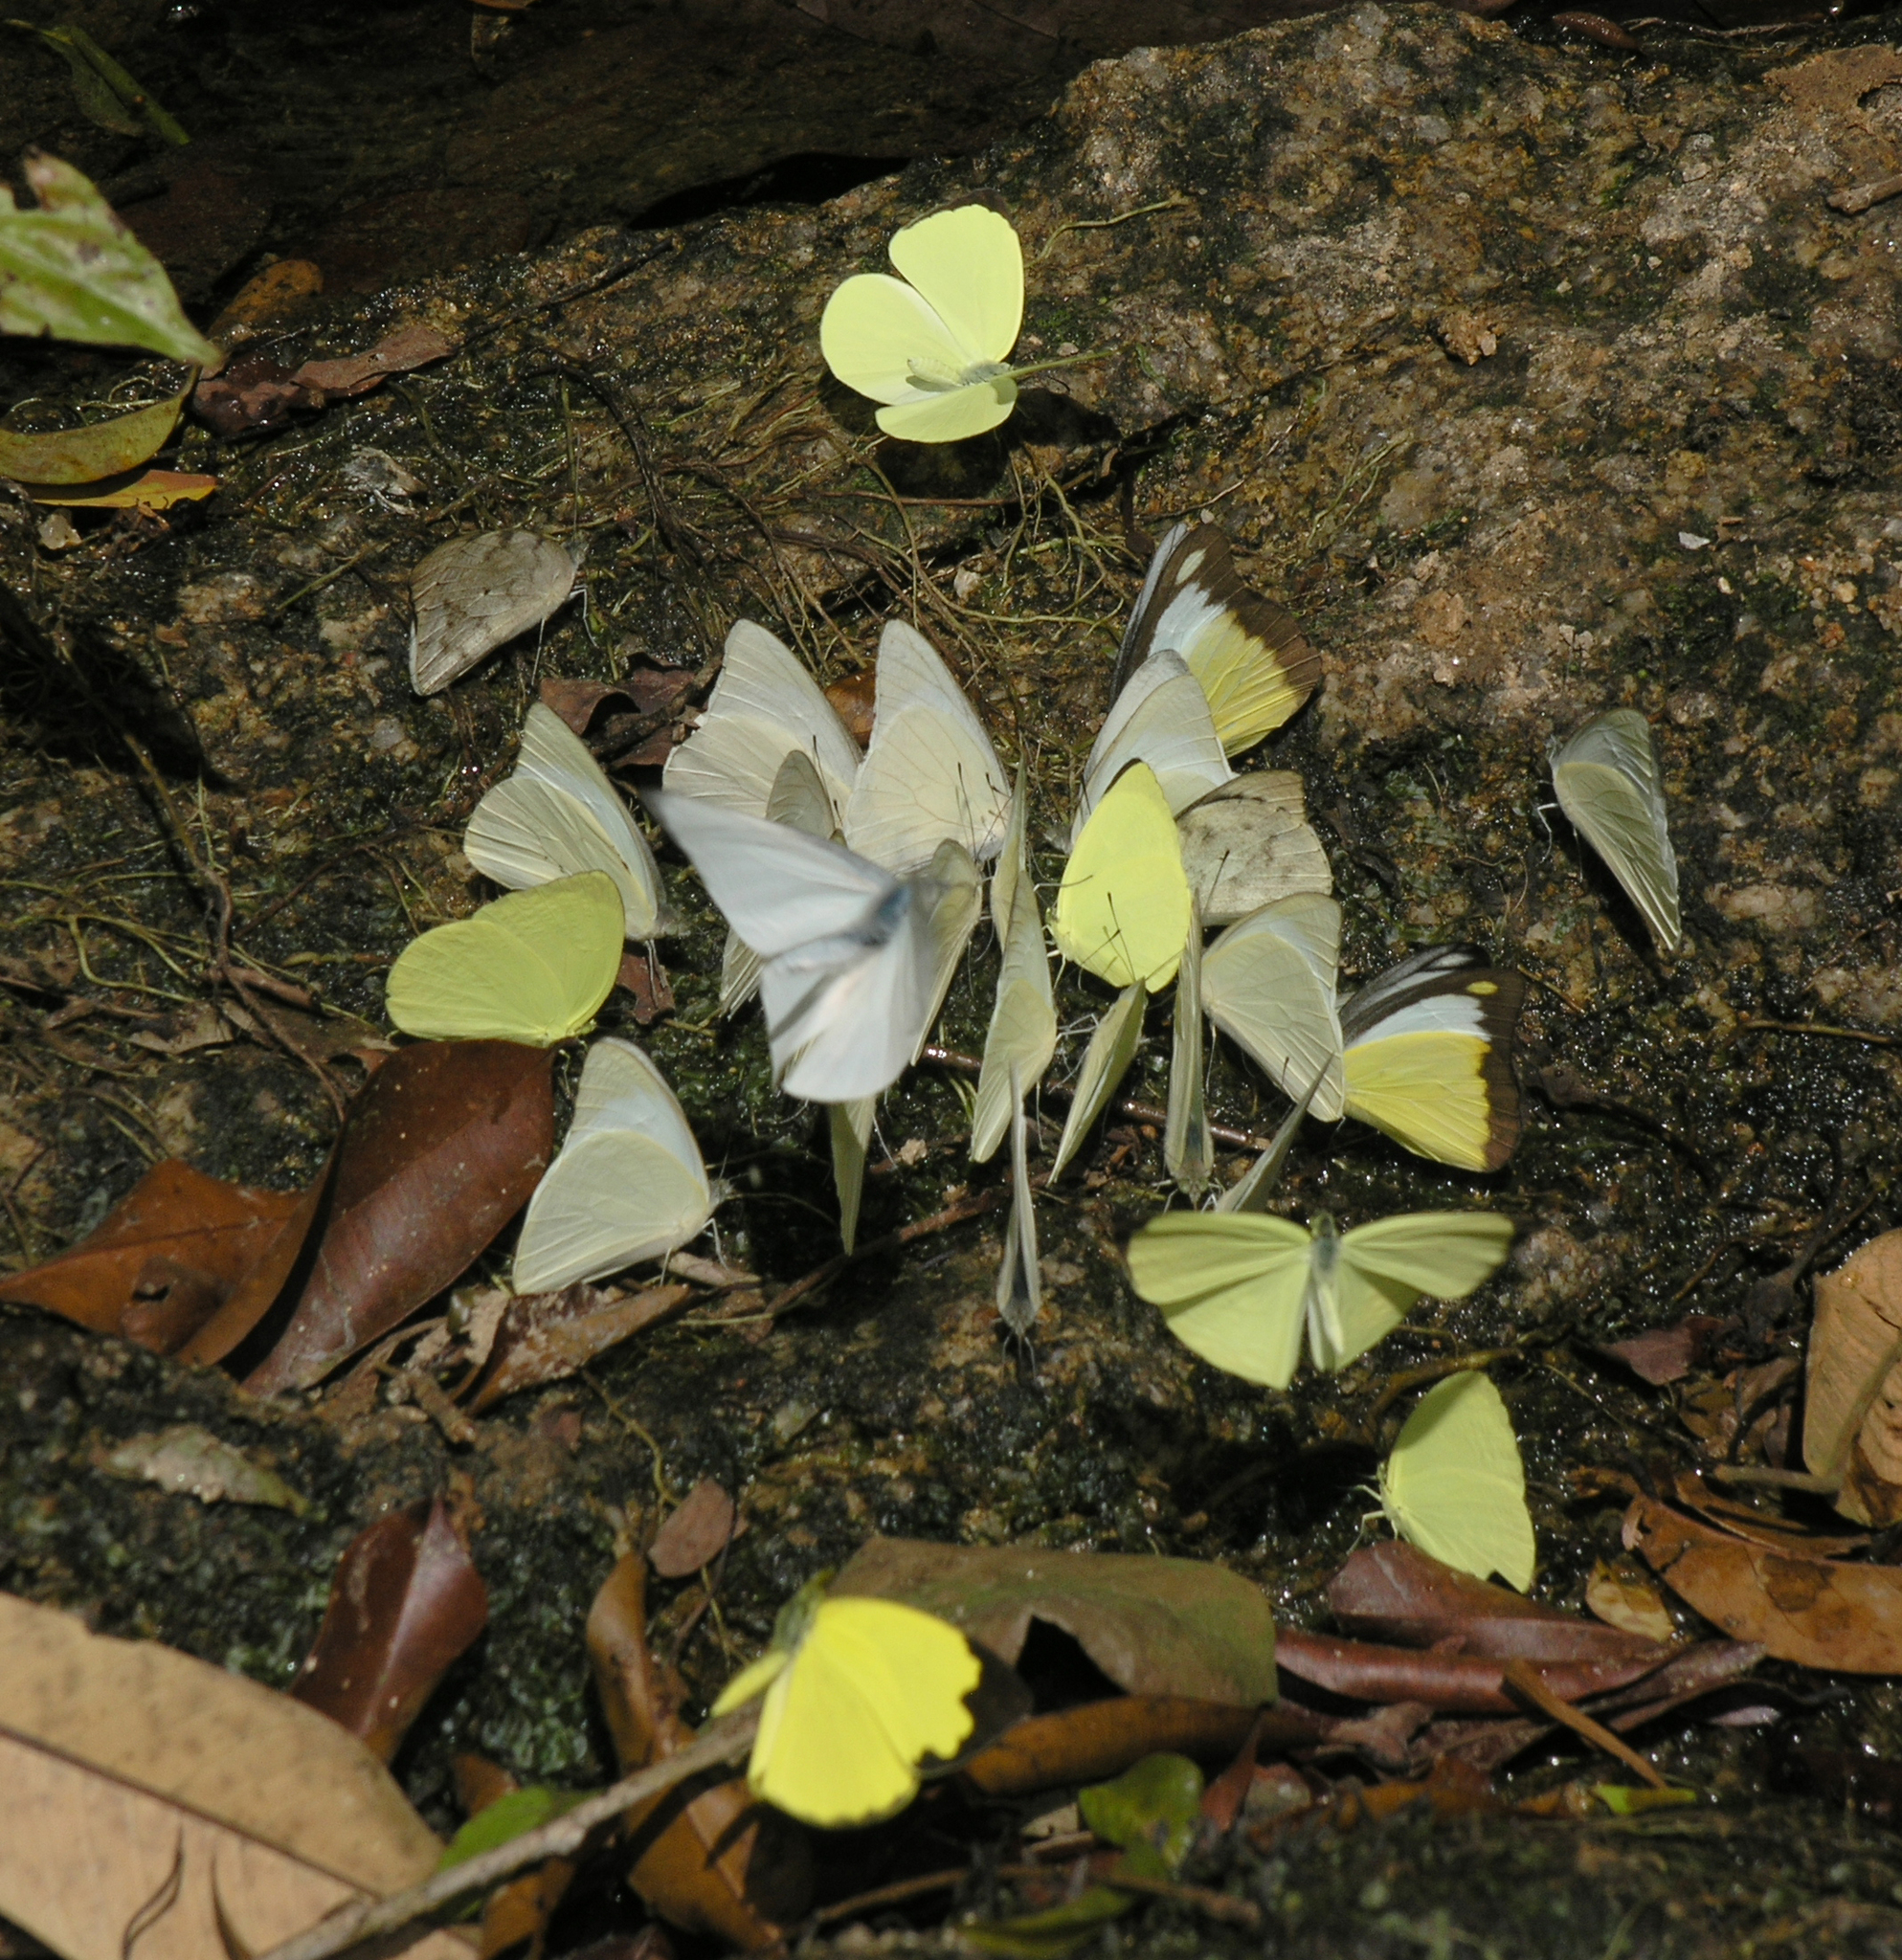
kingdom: Animalia
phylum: Arthropoda
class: Insecta
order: Lepidoptera
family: Pieridae
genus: Appias
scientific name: Appias indra
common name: Plain puffin
